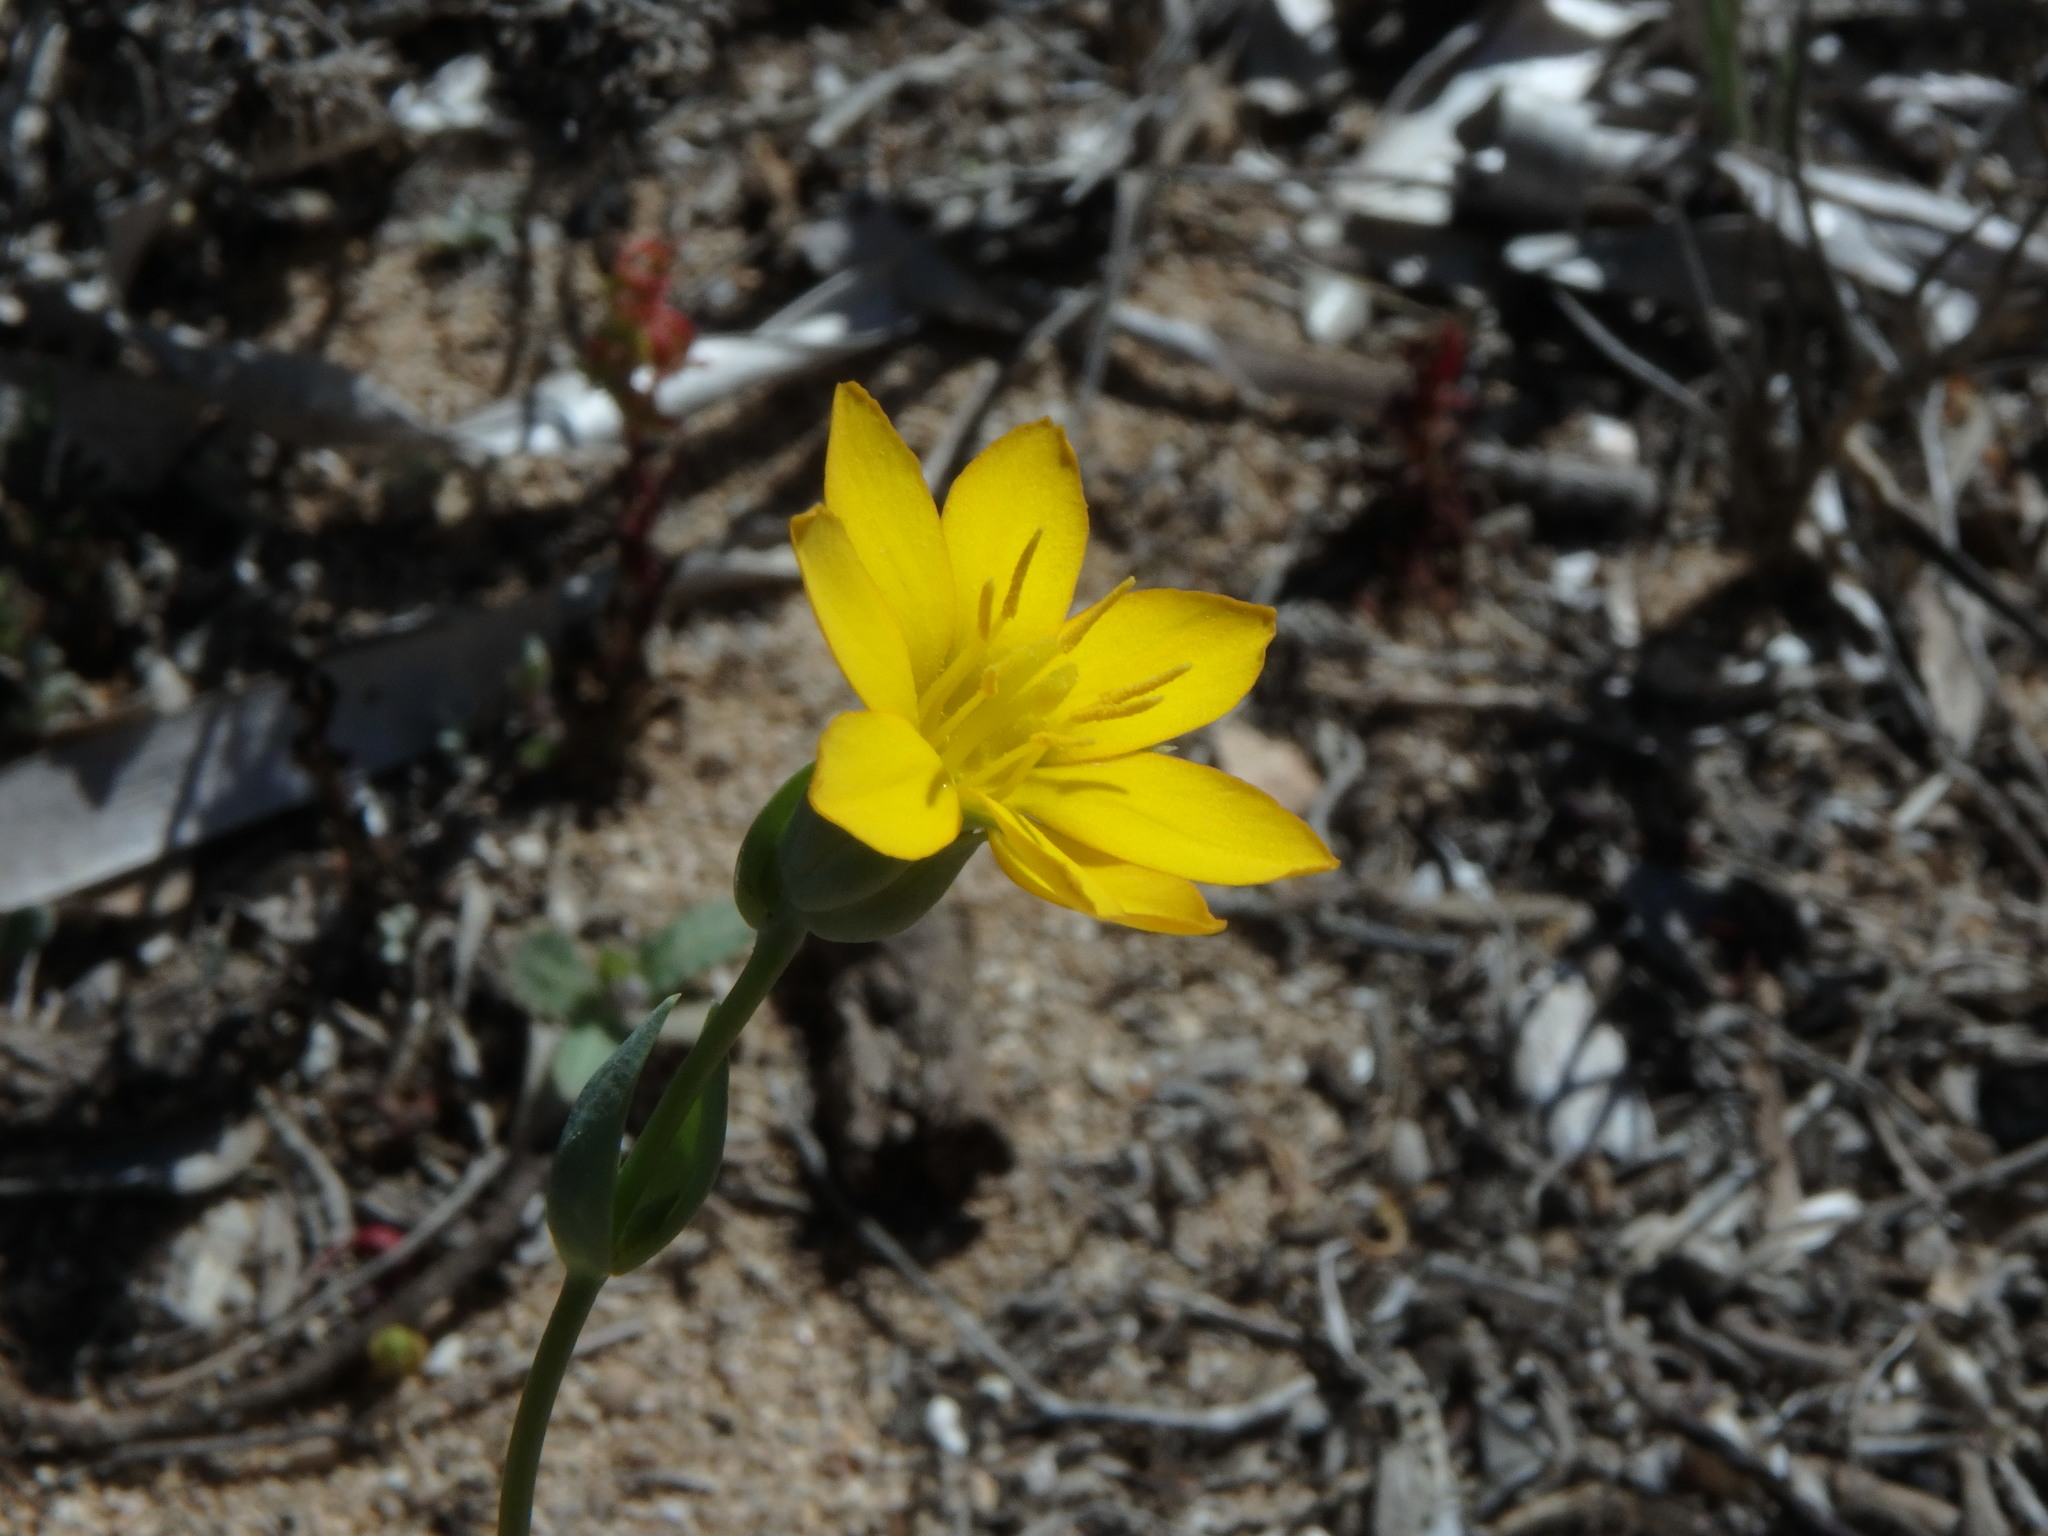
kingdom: Plantae
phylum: Tracheophyta
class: Magnoliopsida
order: Gentianales
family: Gentianaceae
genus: Blackstonia
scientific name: Blackstonia perfoliata
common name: Yellow-wort
